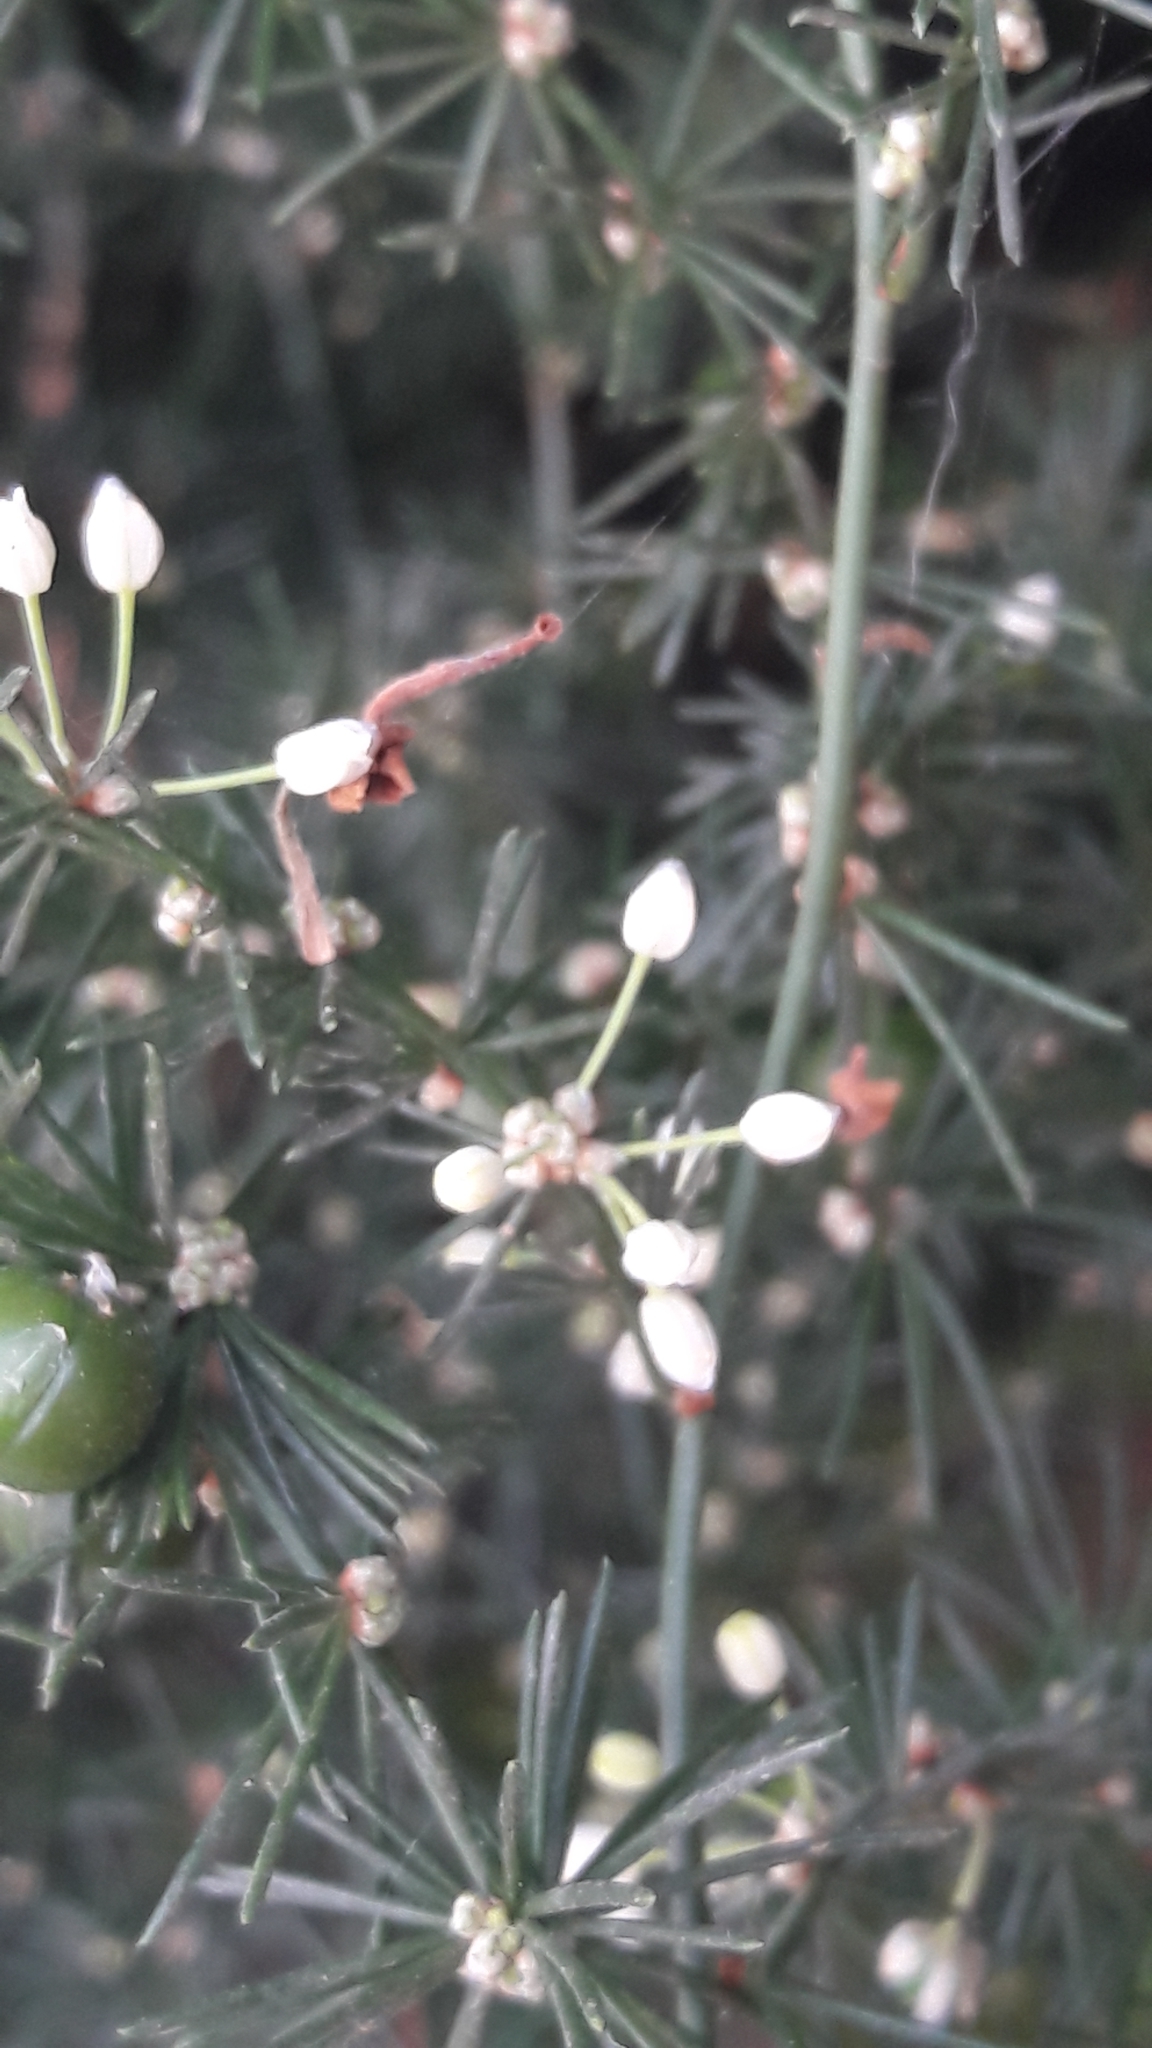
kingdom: Plantae
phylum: Tracheophyta
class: Liliopsida
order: Asparagales
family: Asparagaceae
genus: Asparagus
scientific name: Asparagus aphyllus
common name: Mediterranean asparagus
